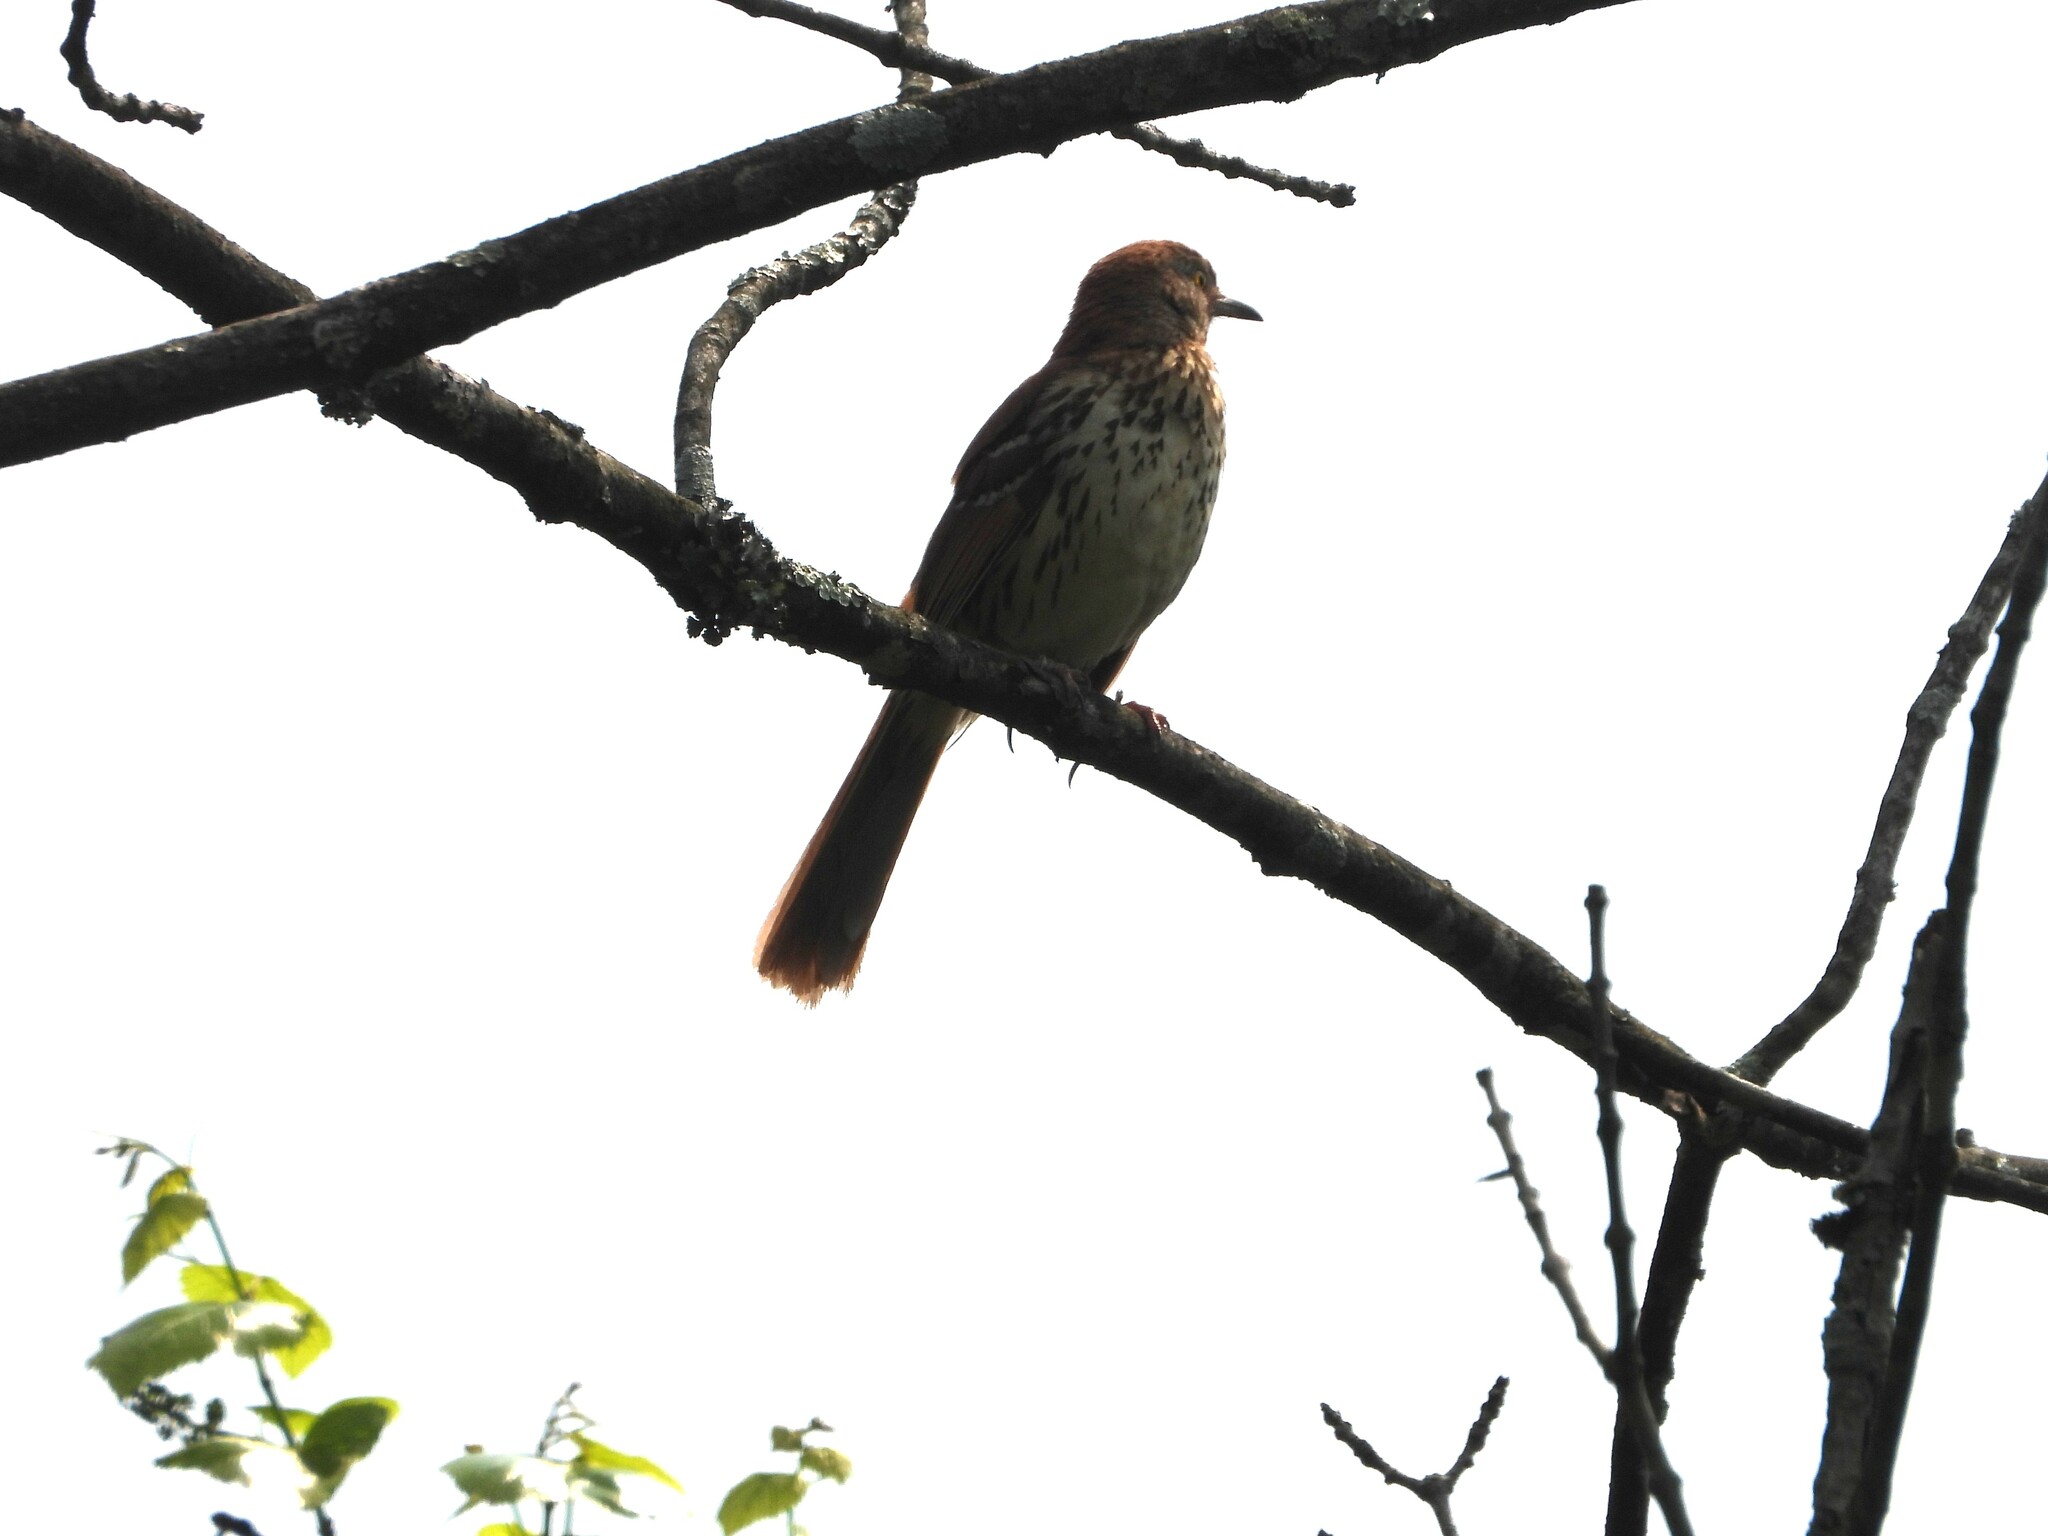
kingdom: Animalia
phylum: Chordata
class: Aves
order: Passeriformes
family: Mimidae
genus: Toxostoma
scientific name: Toxostoma rufum
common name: Brown thrasher
